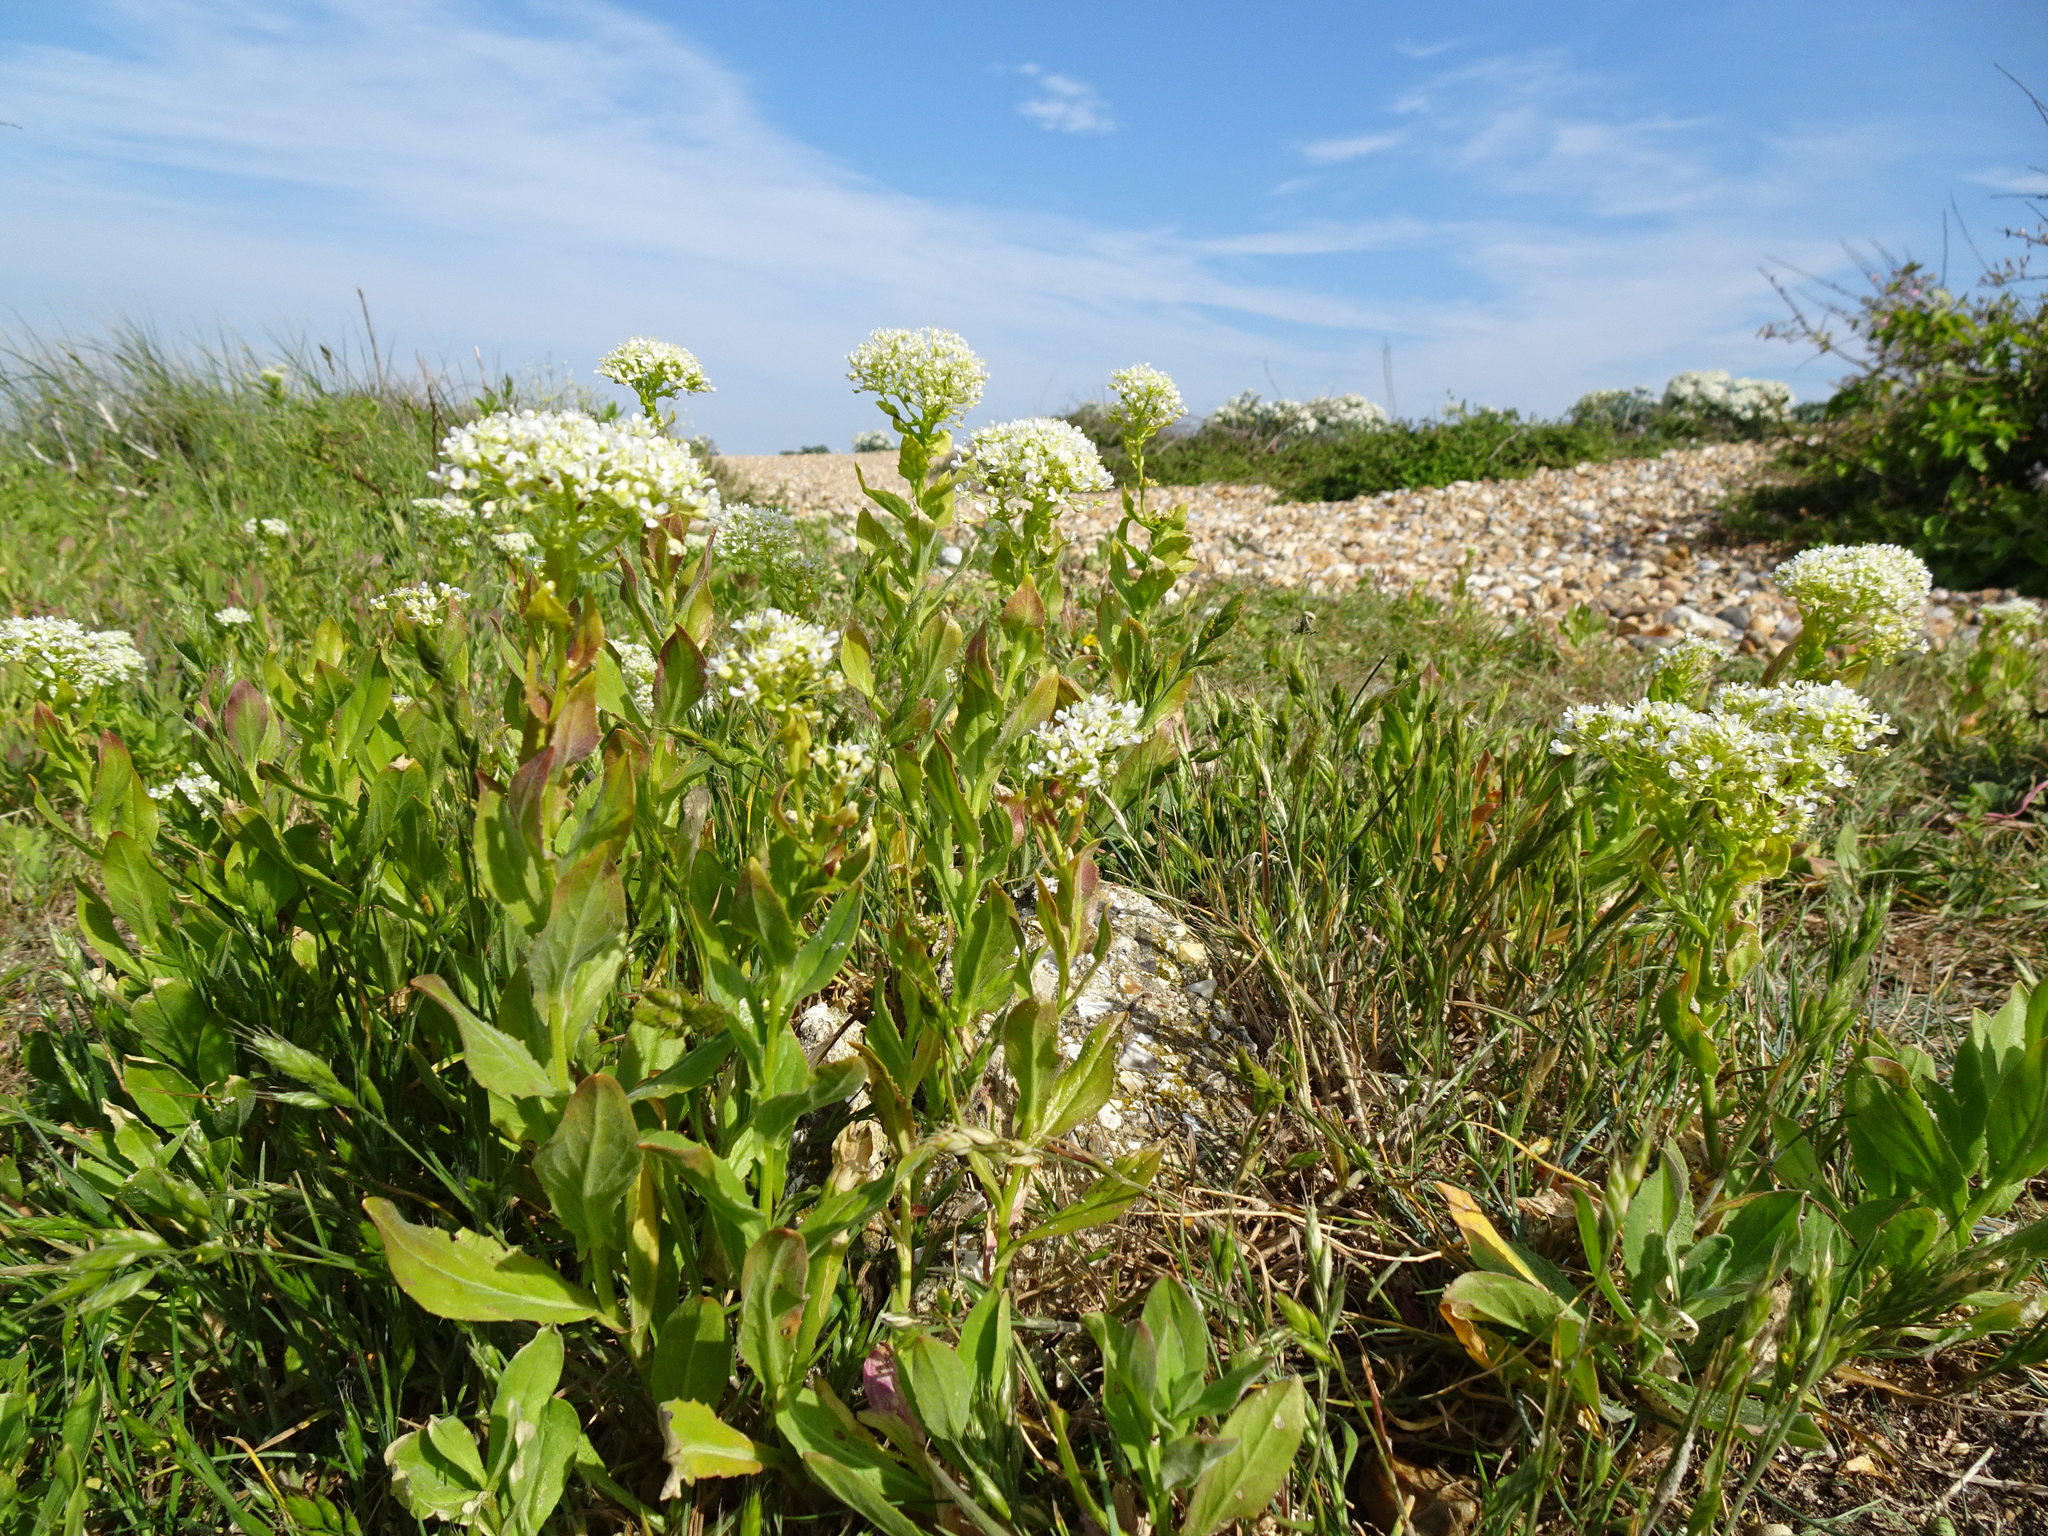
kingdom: Plantae
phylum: Tracheophyta
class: Magnoliopsida
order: Brassicales
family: Brassicaceae
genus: Lepidium
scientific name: Lepidium draba
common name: Hoary cress
